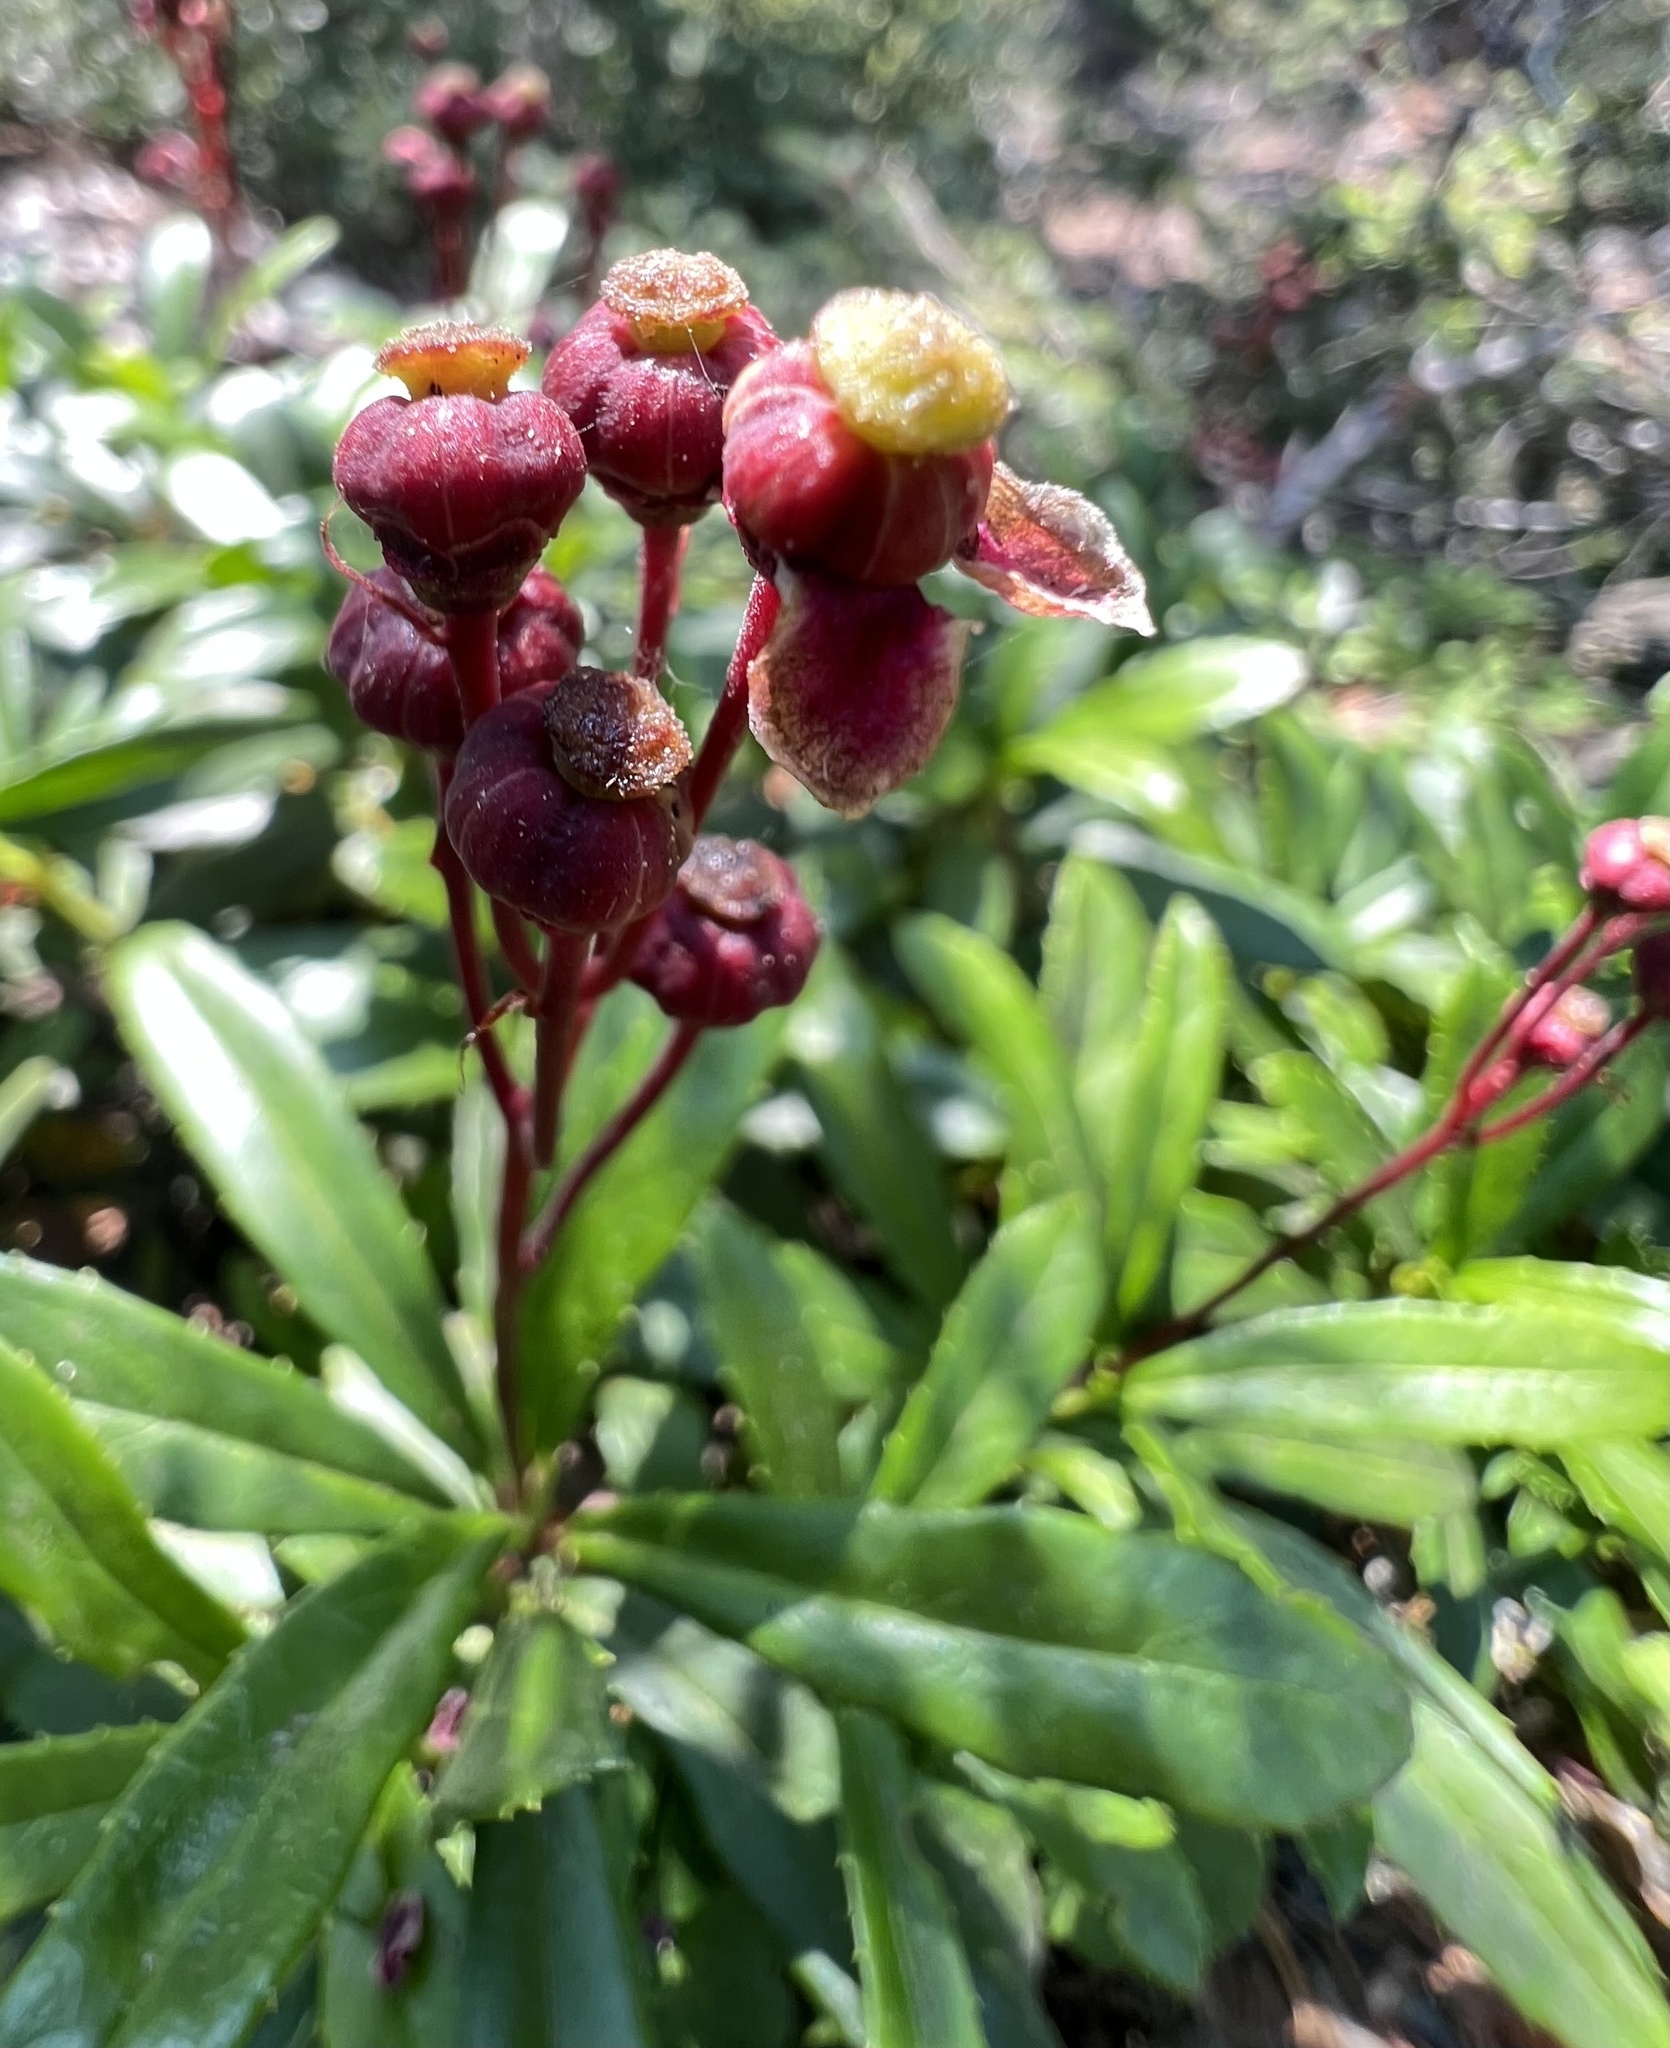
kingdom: Plantae
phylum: Tracheophyta
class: Magnoliopsida
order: Ericales
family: Ericaceae
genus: Chimaphila
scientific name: Chimaphila umbellata
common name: Pipsissewa
